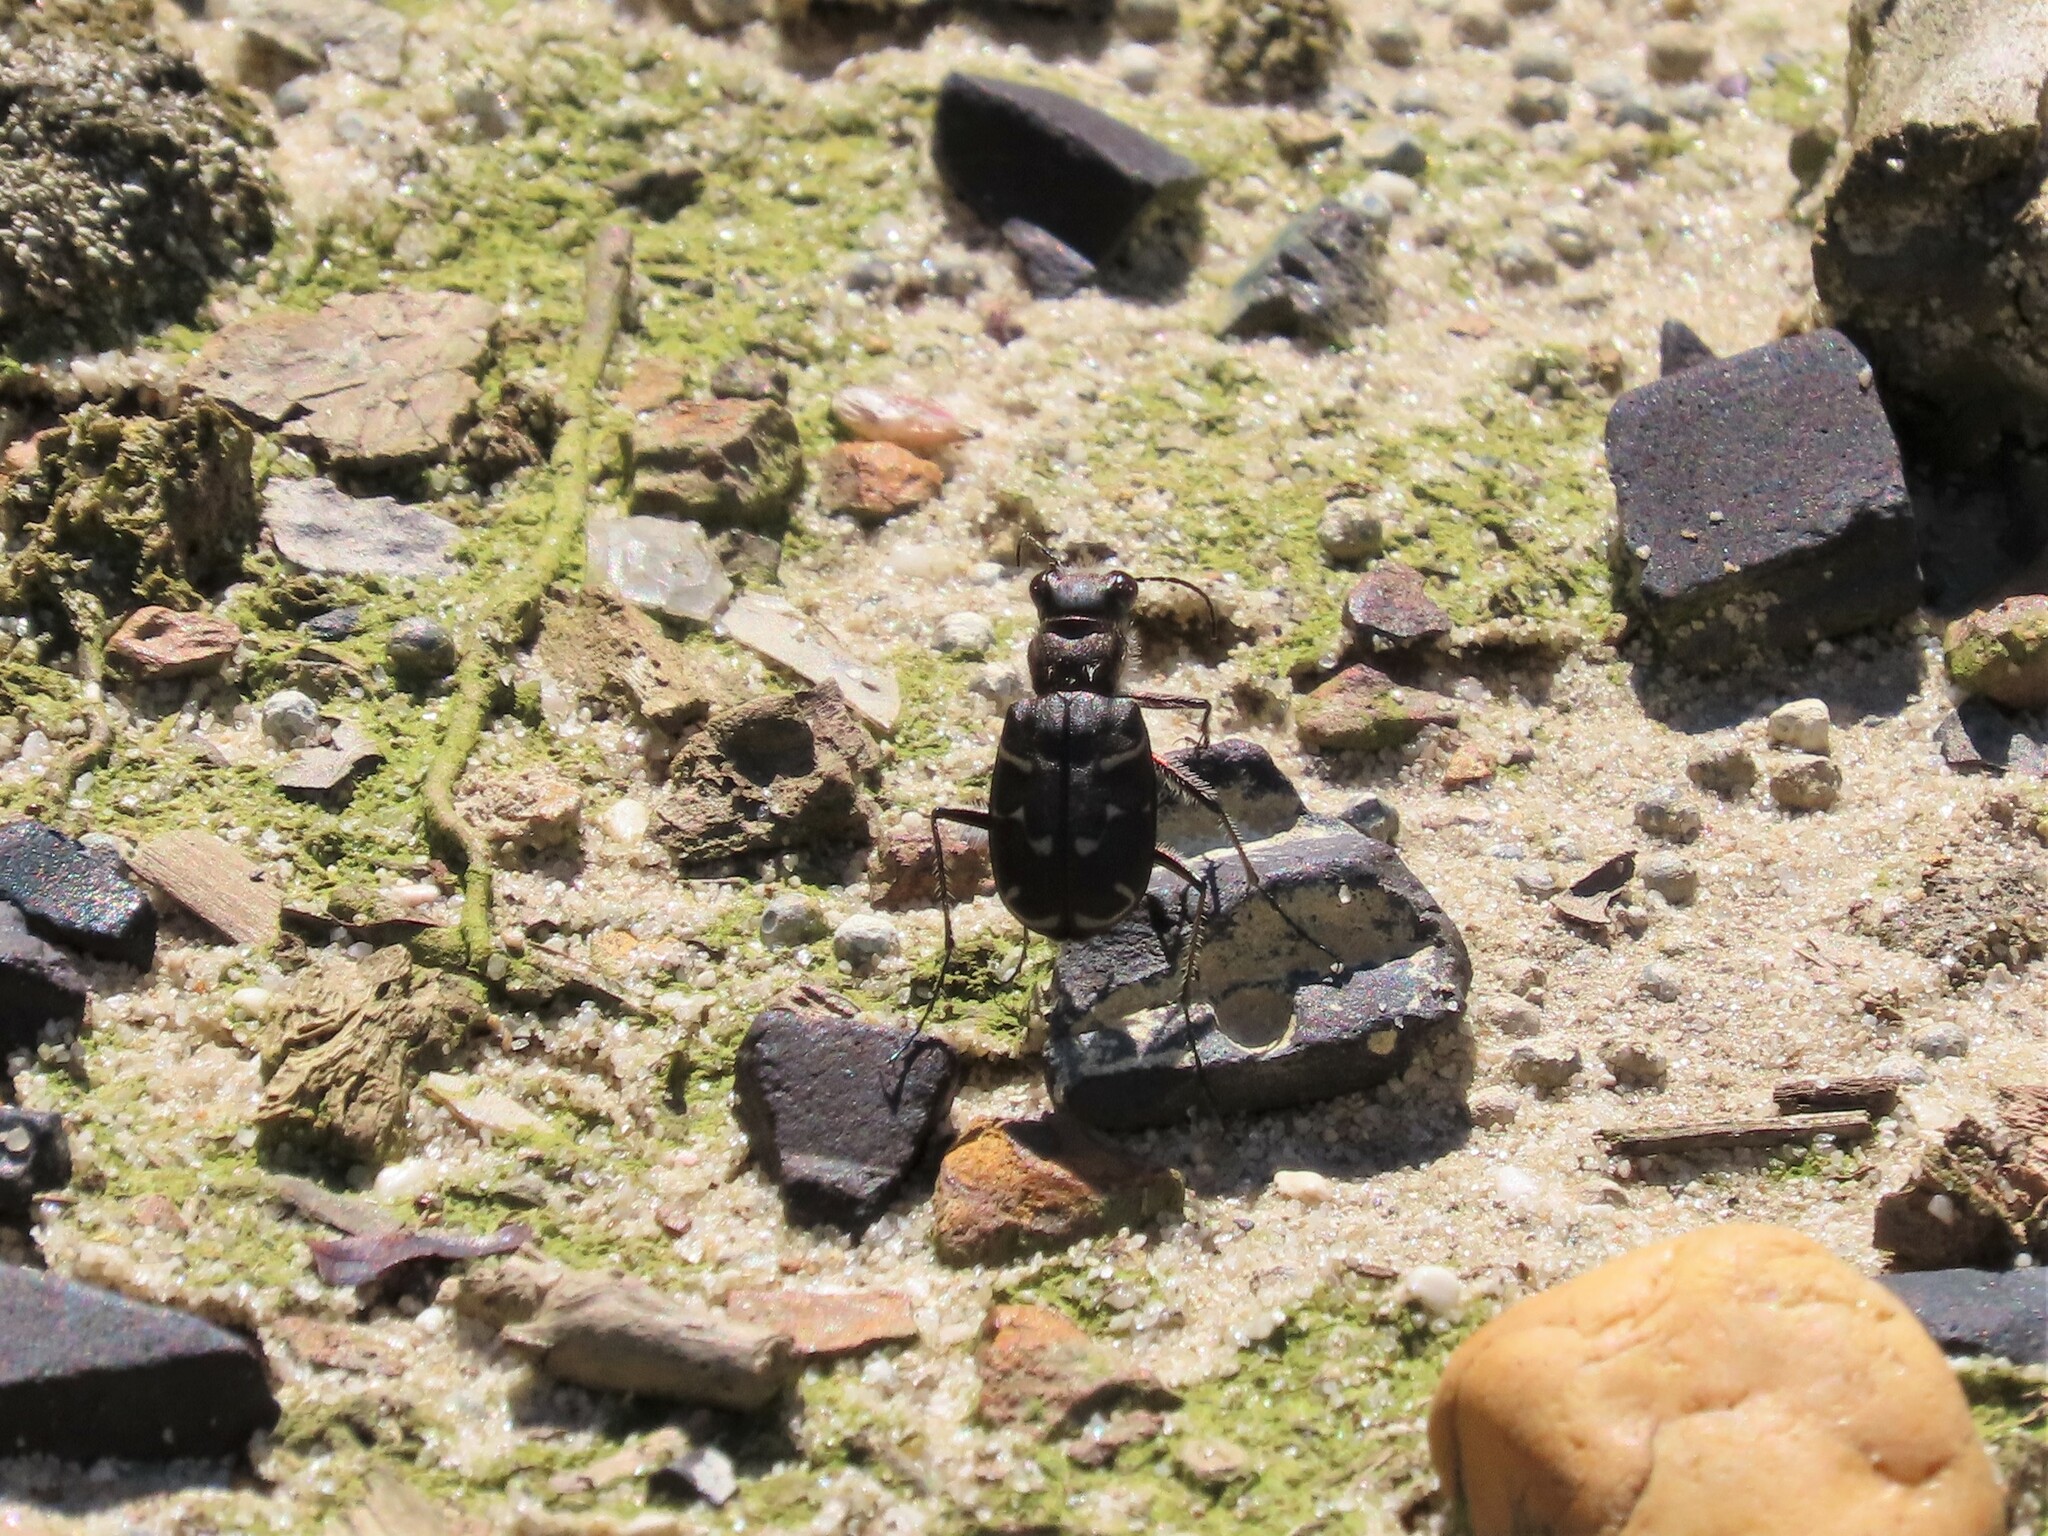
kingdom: Animalia
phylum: Arthropoda
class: Insecta
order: Coleoptera
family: Carabidae
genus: Cicindela
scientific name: Cicindela tranquebarica
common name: Oblique-lined tiger beetle
